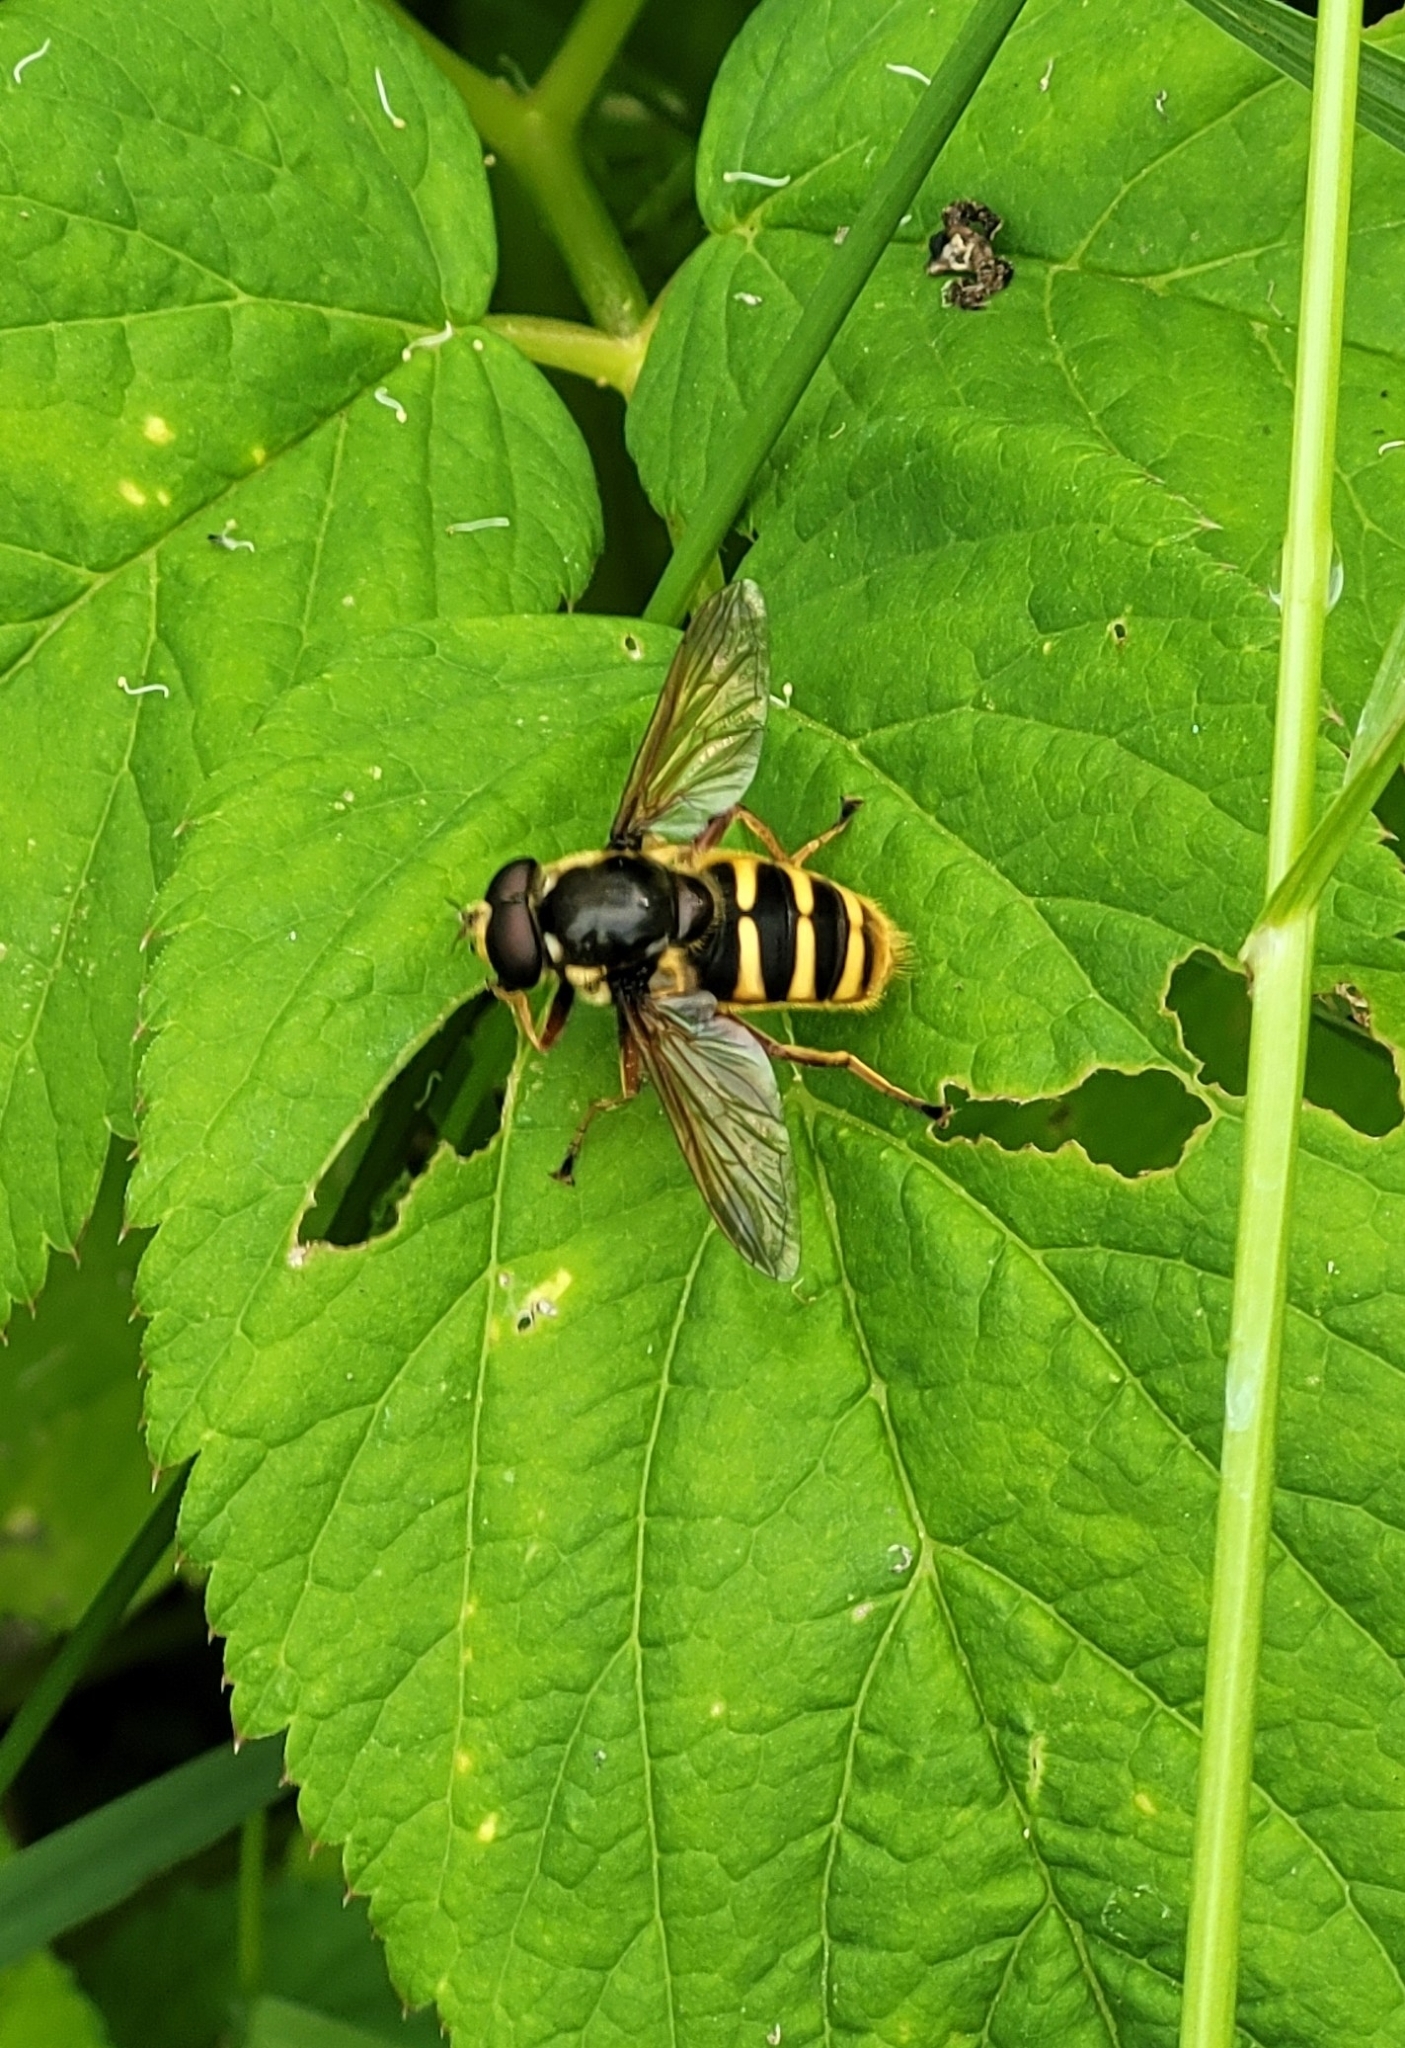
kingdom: Animalia
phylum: Arthropoda
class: Insecta
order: Diptera
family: Syrphidae
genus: Sericomyia
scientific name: Sericomyia silentis
